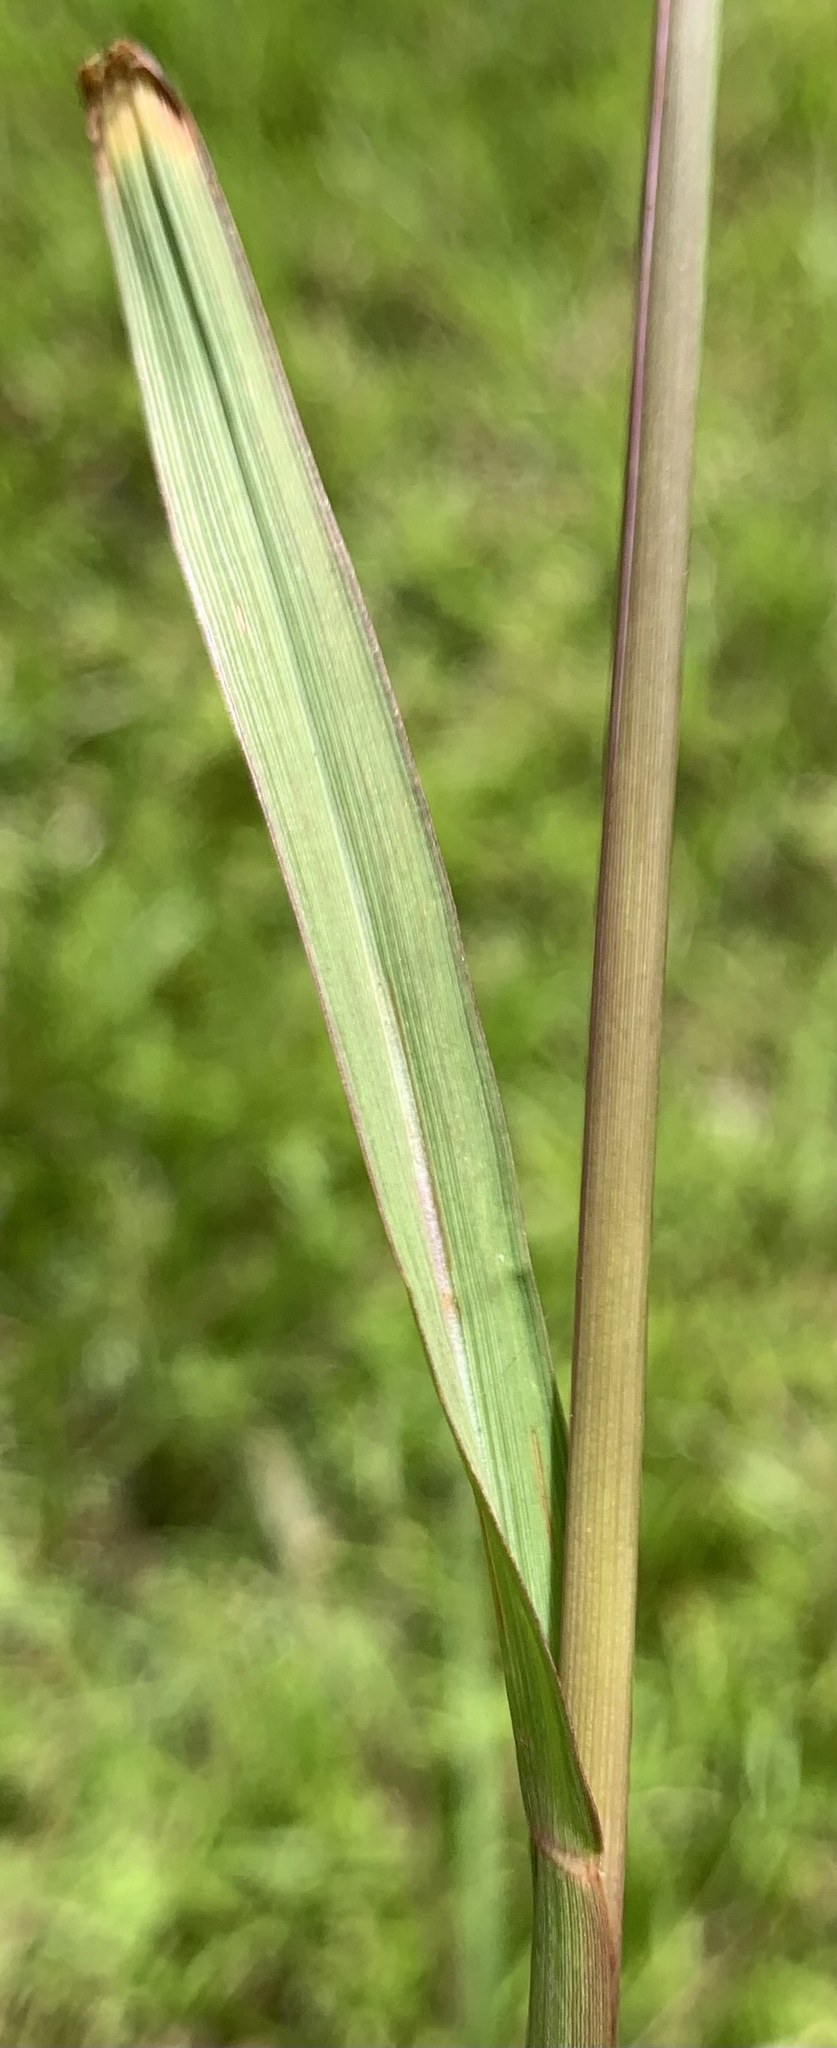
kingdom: Plantae
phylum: Tracheophyta
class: Liliopsida
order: Poales
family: Poaceae
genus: Paspalum
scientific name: Paspalum notatum
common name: Bahiagrass
